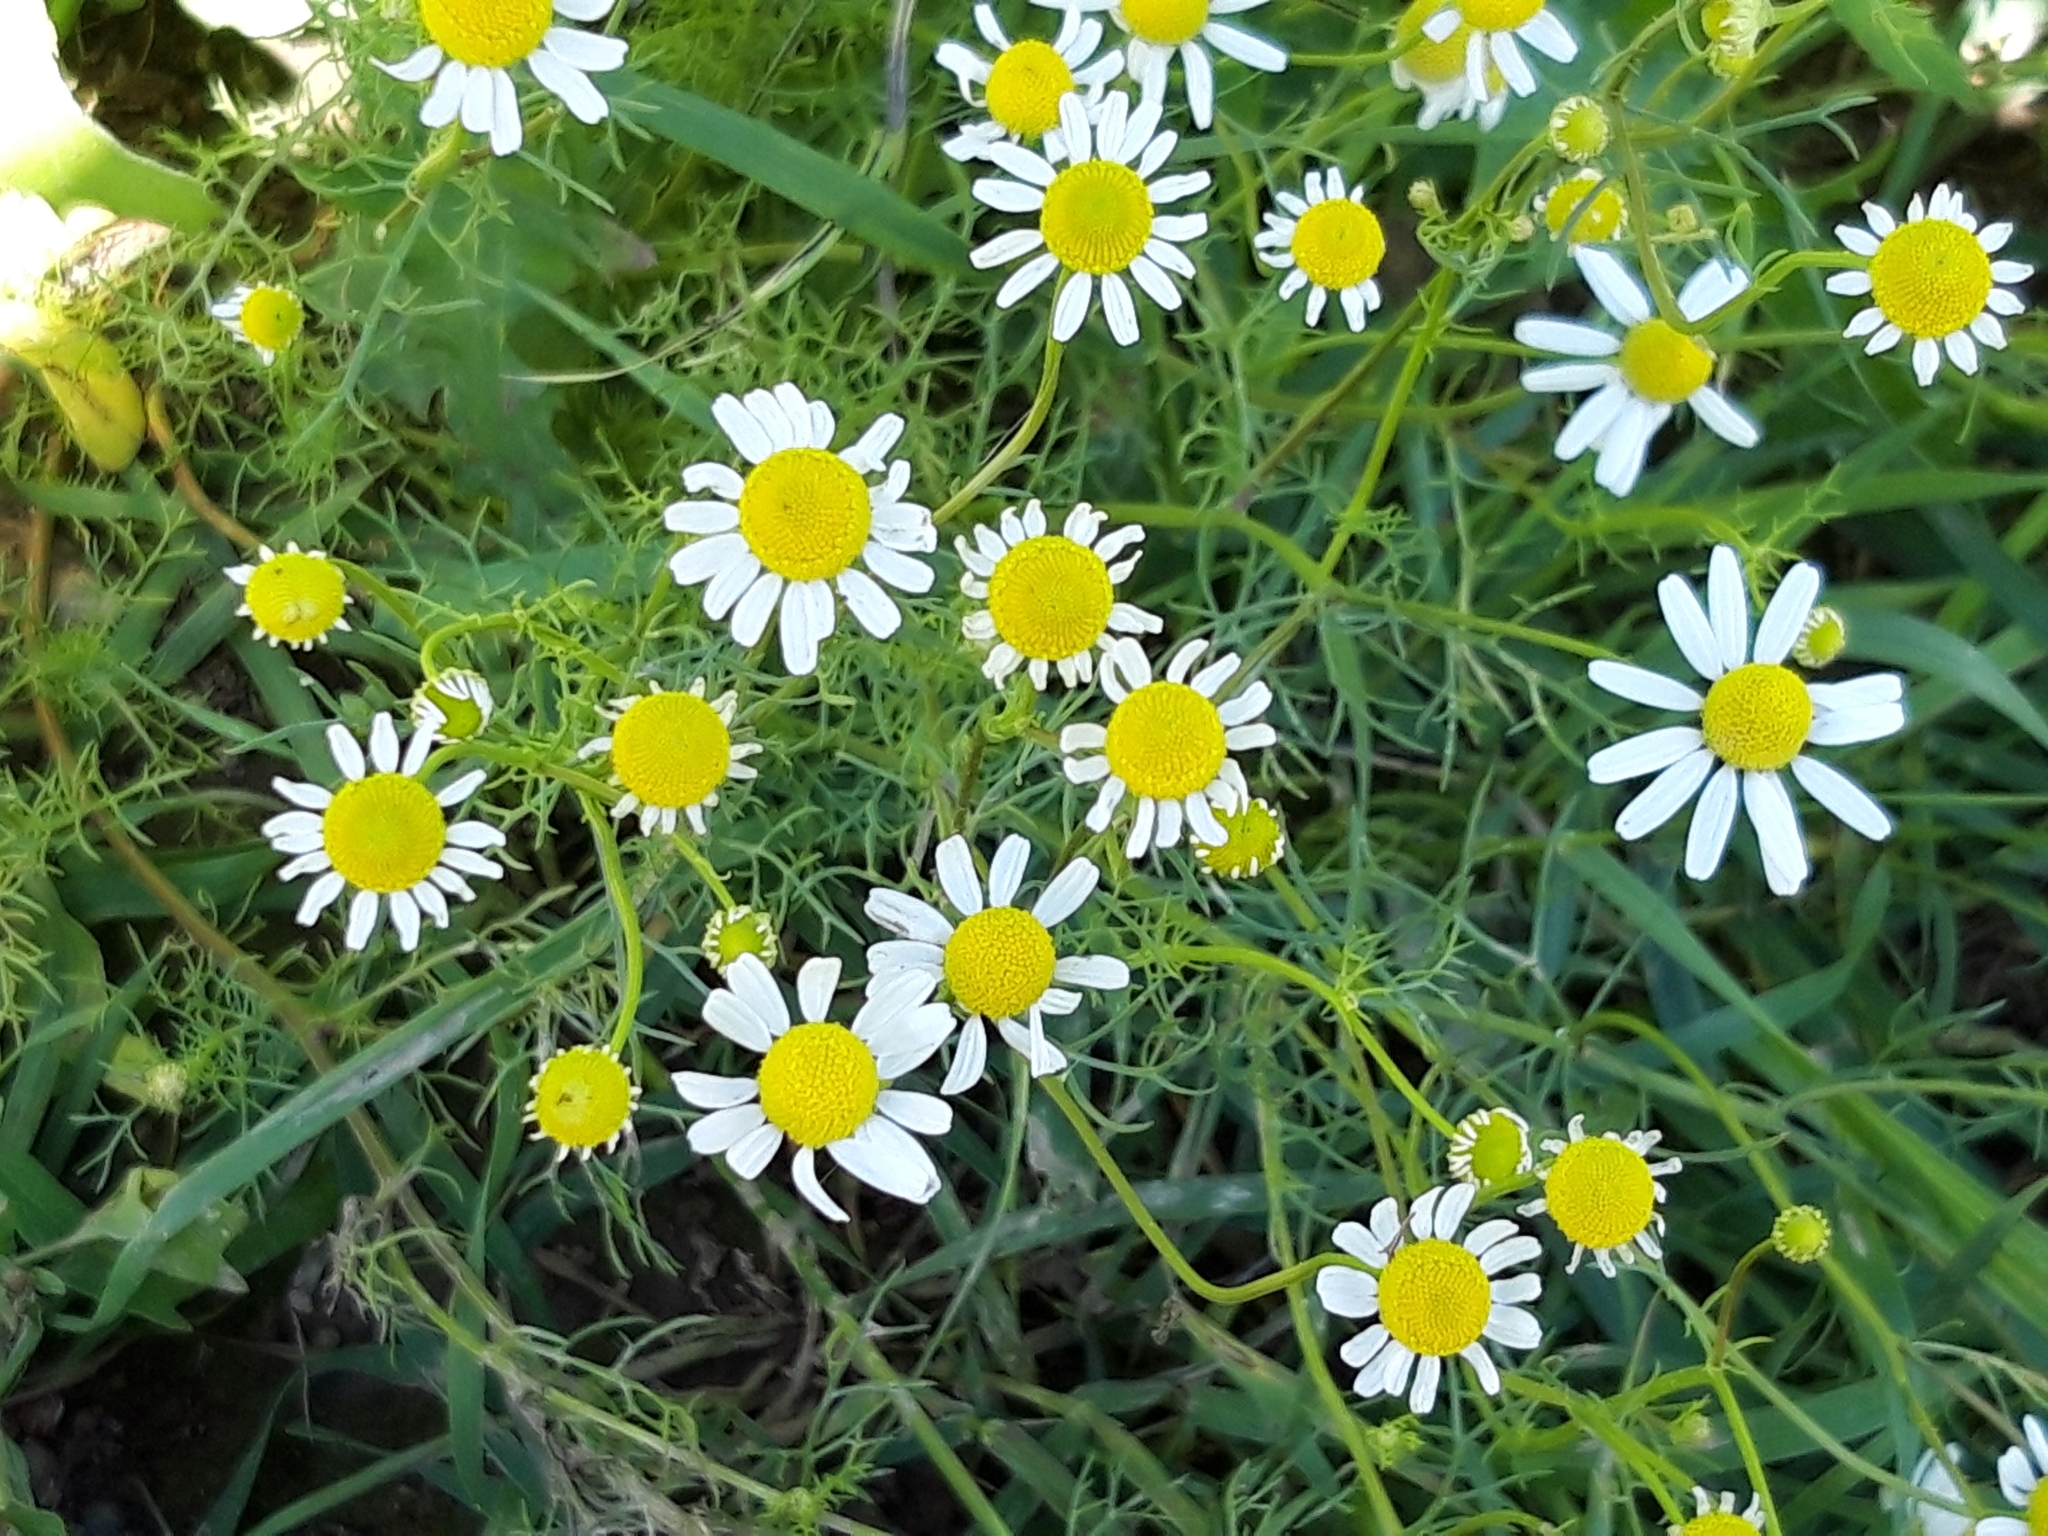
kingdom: Plantae
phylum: Tracheophyta
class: Magnoliopsida
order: Asterales
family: Asteraceae
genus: Tripleurospermum
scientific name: Tripleurospermum inodorum
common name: Scentless mayweed
